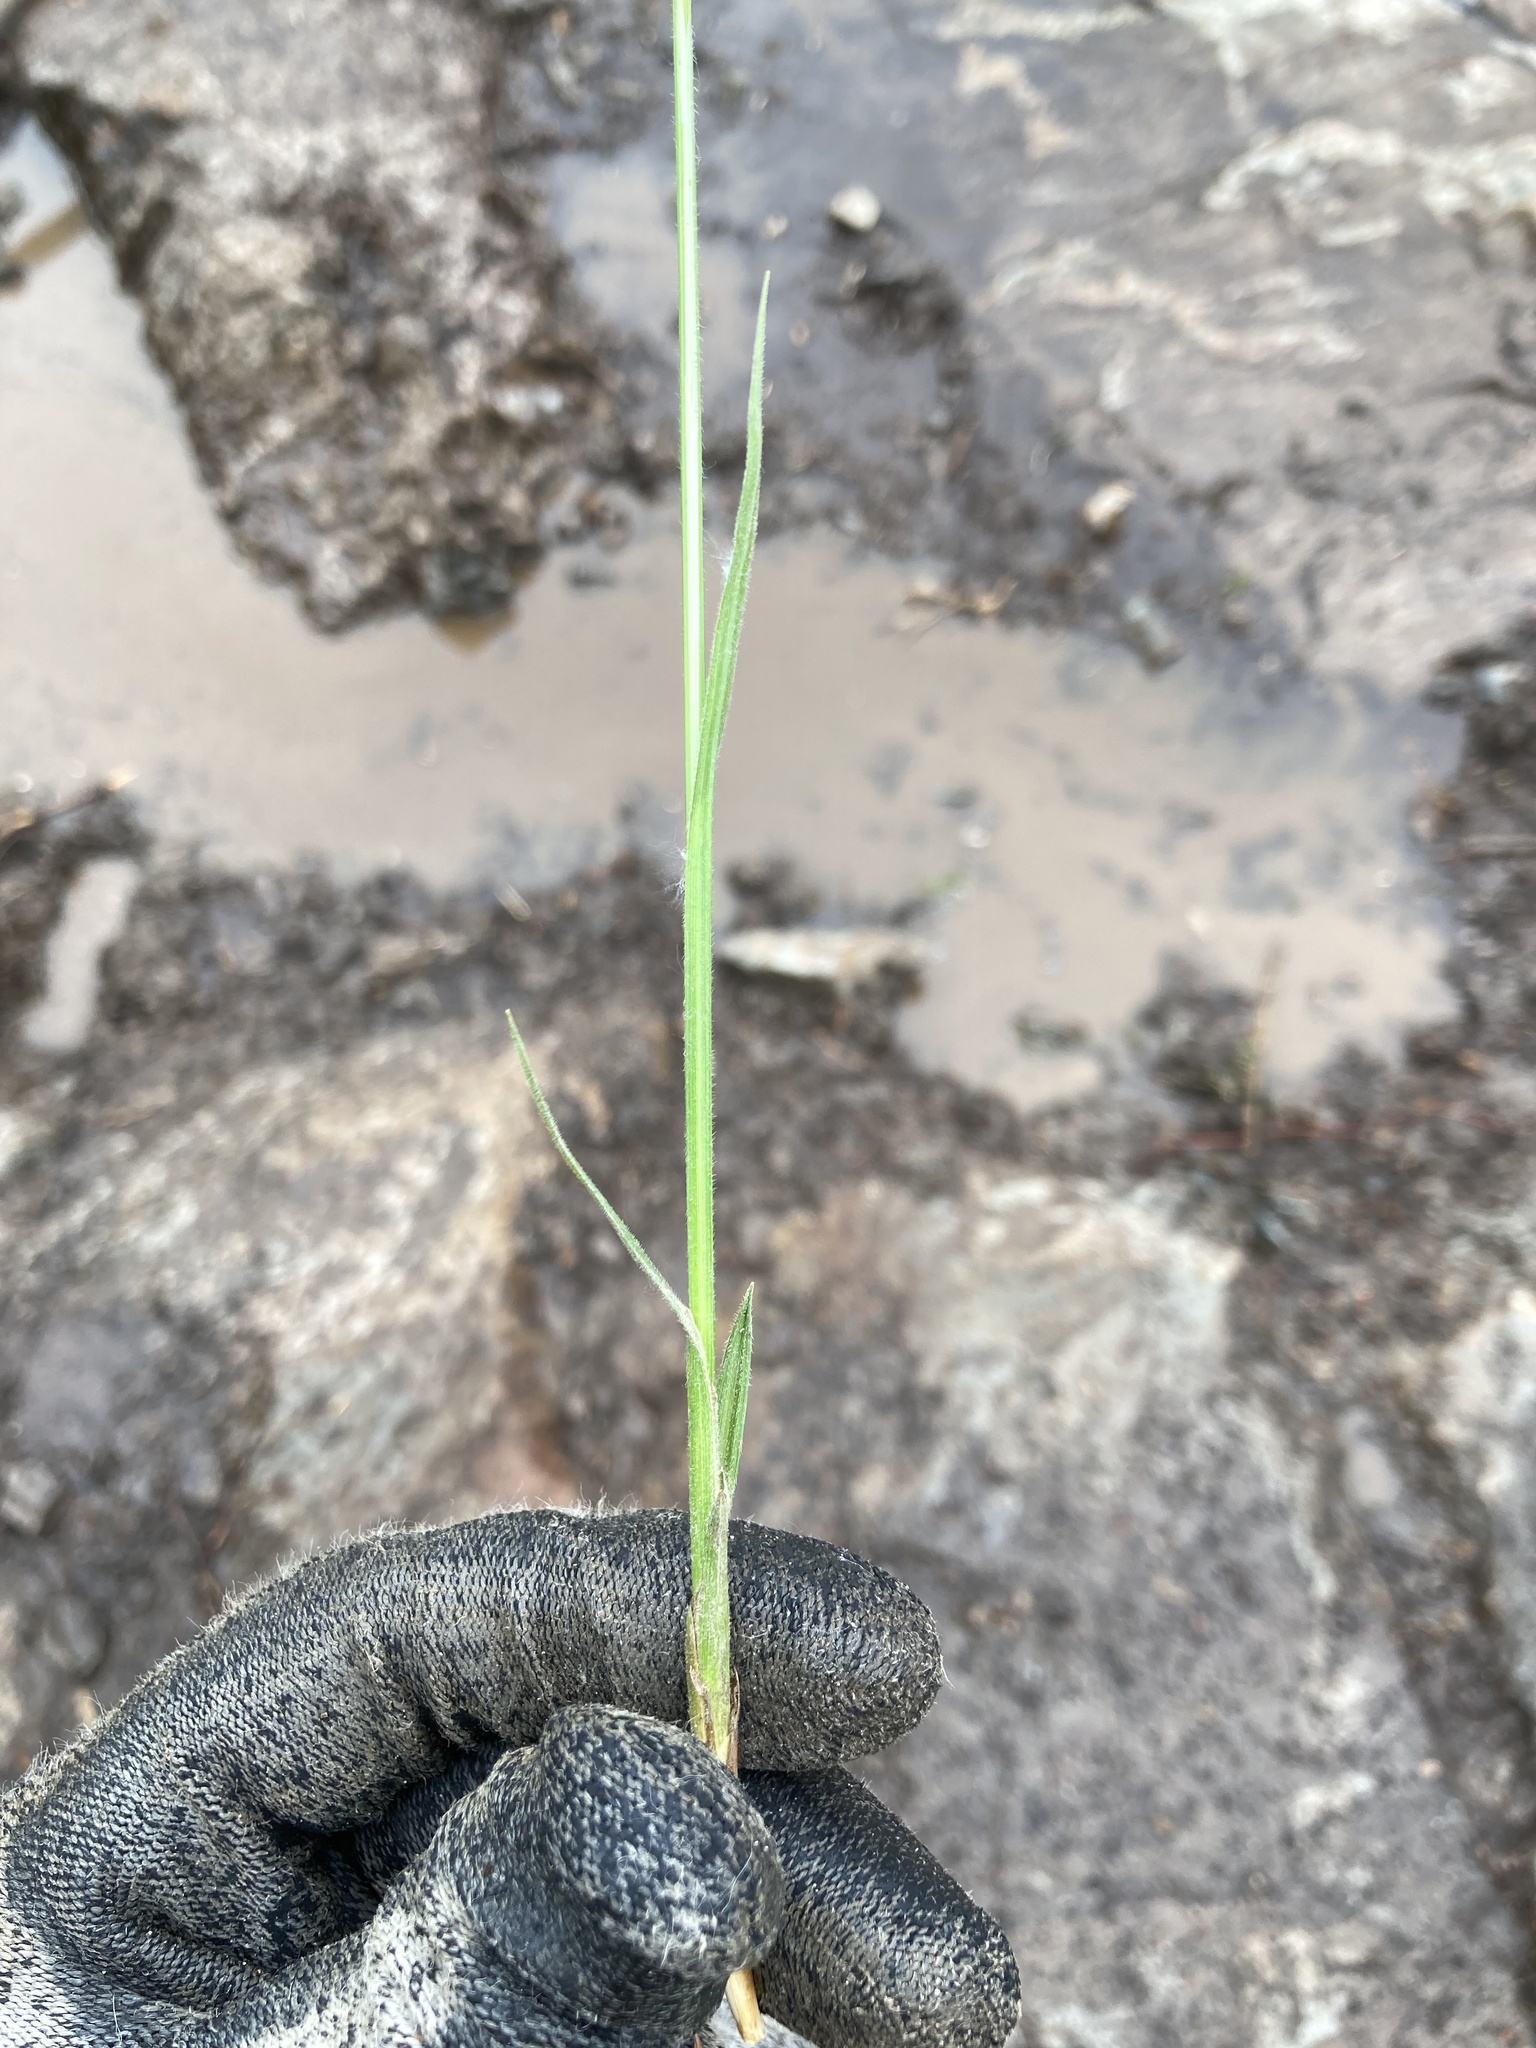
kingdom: Plantae
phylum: Tracheophyta
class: Liliopsida
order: Poales
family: Cyperaceae
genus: Carex
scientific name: Carex castanea
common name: Chestnut sedge
